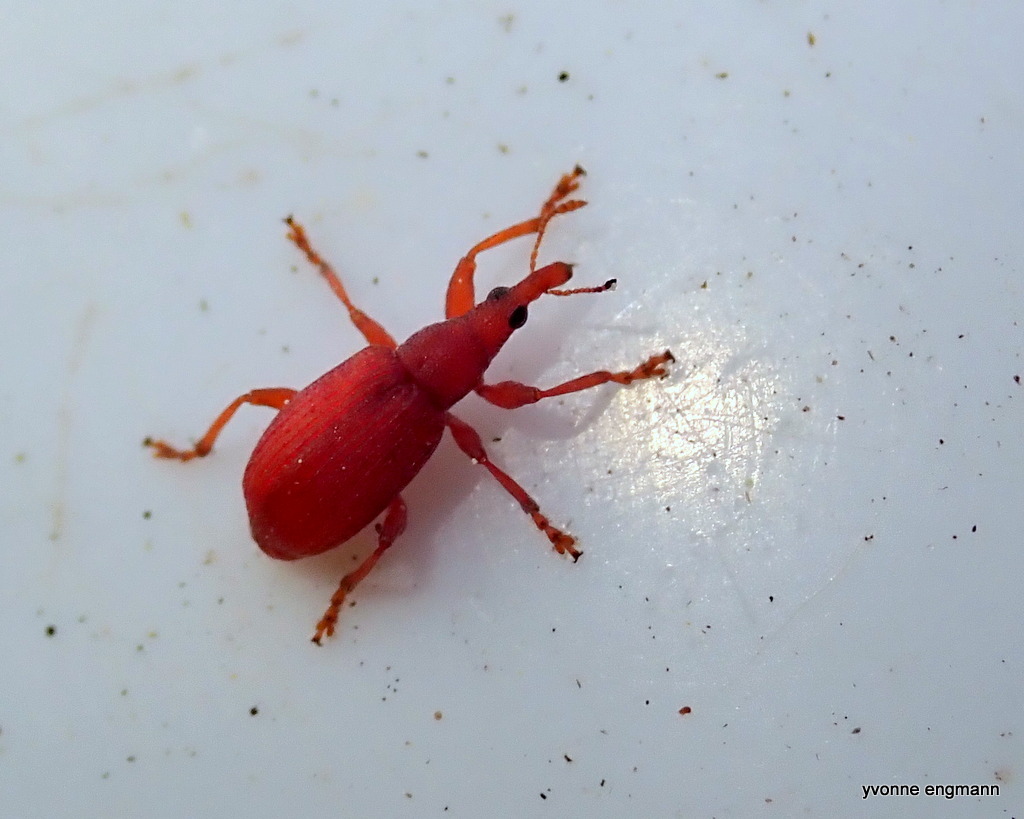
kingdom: Animalia
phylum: Arthropoda
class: Insecta
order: Coleoptera
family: Apionidae
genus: Apion
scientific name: Apion frumentarium
